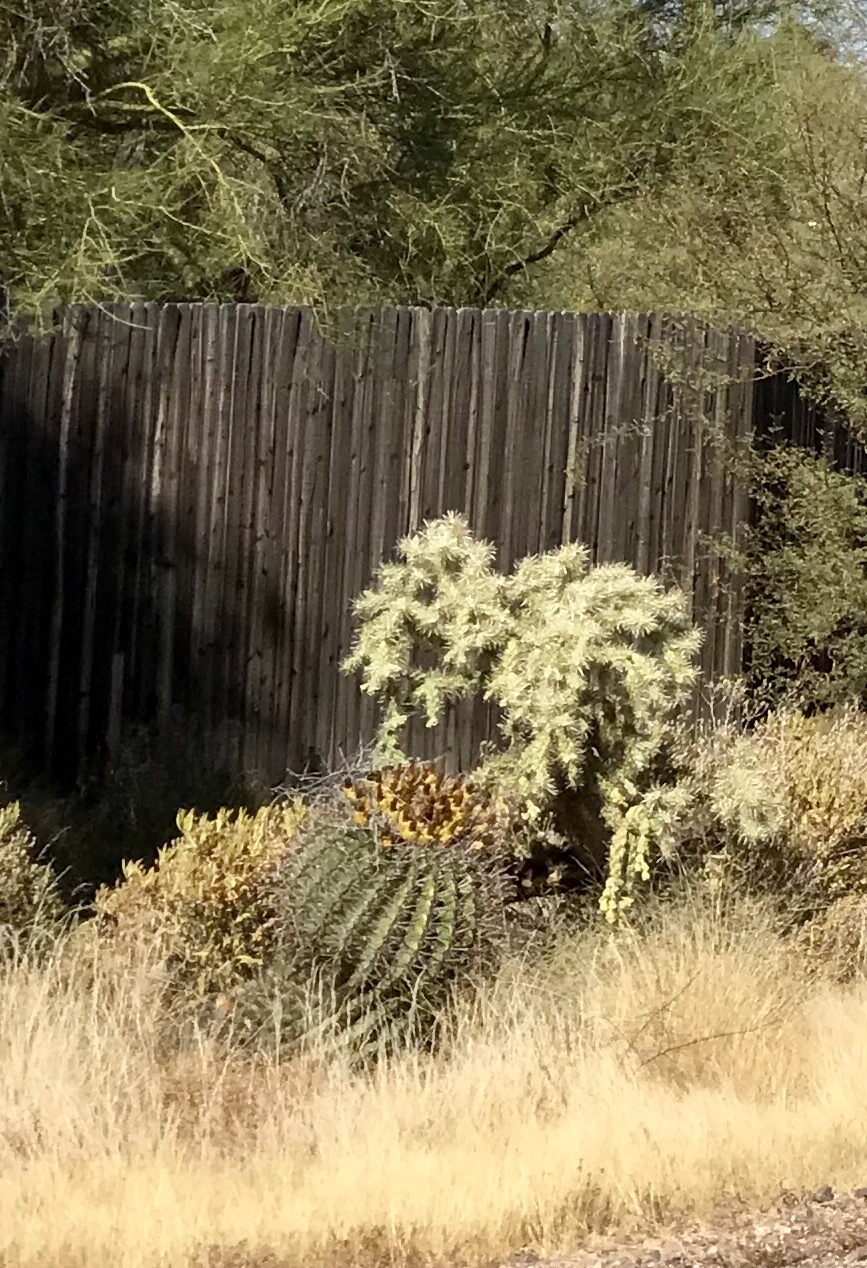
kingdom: Plantae
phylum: Tracheophyta
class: Magnoliopsida
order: Caryophyllales
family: Cactaceae
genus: Cylindropuntia
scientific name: Cylindropuntia fulgida
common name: Jumping cholla
